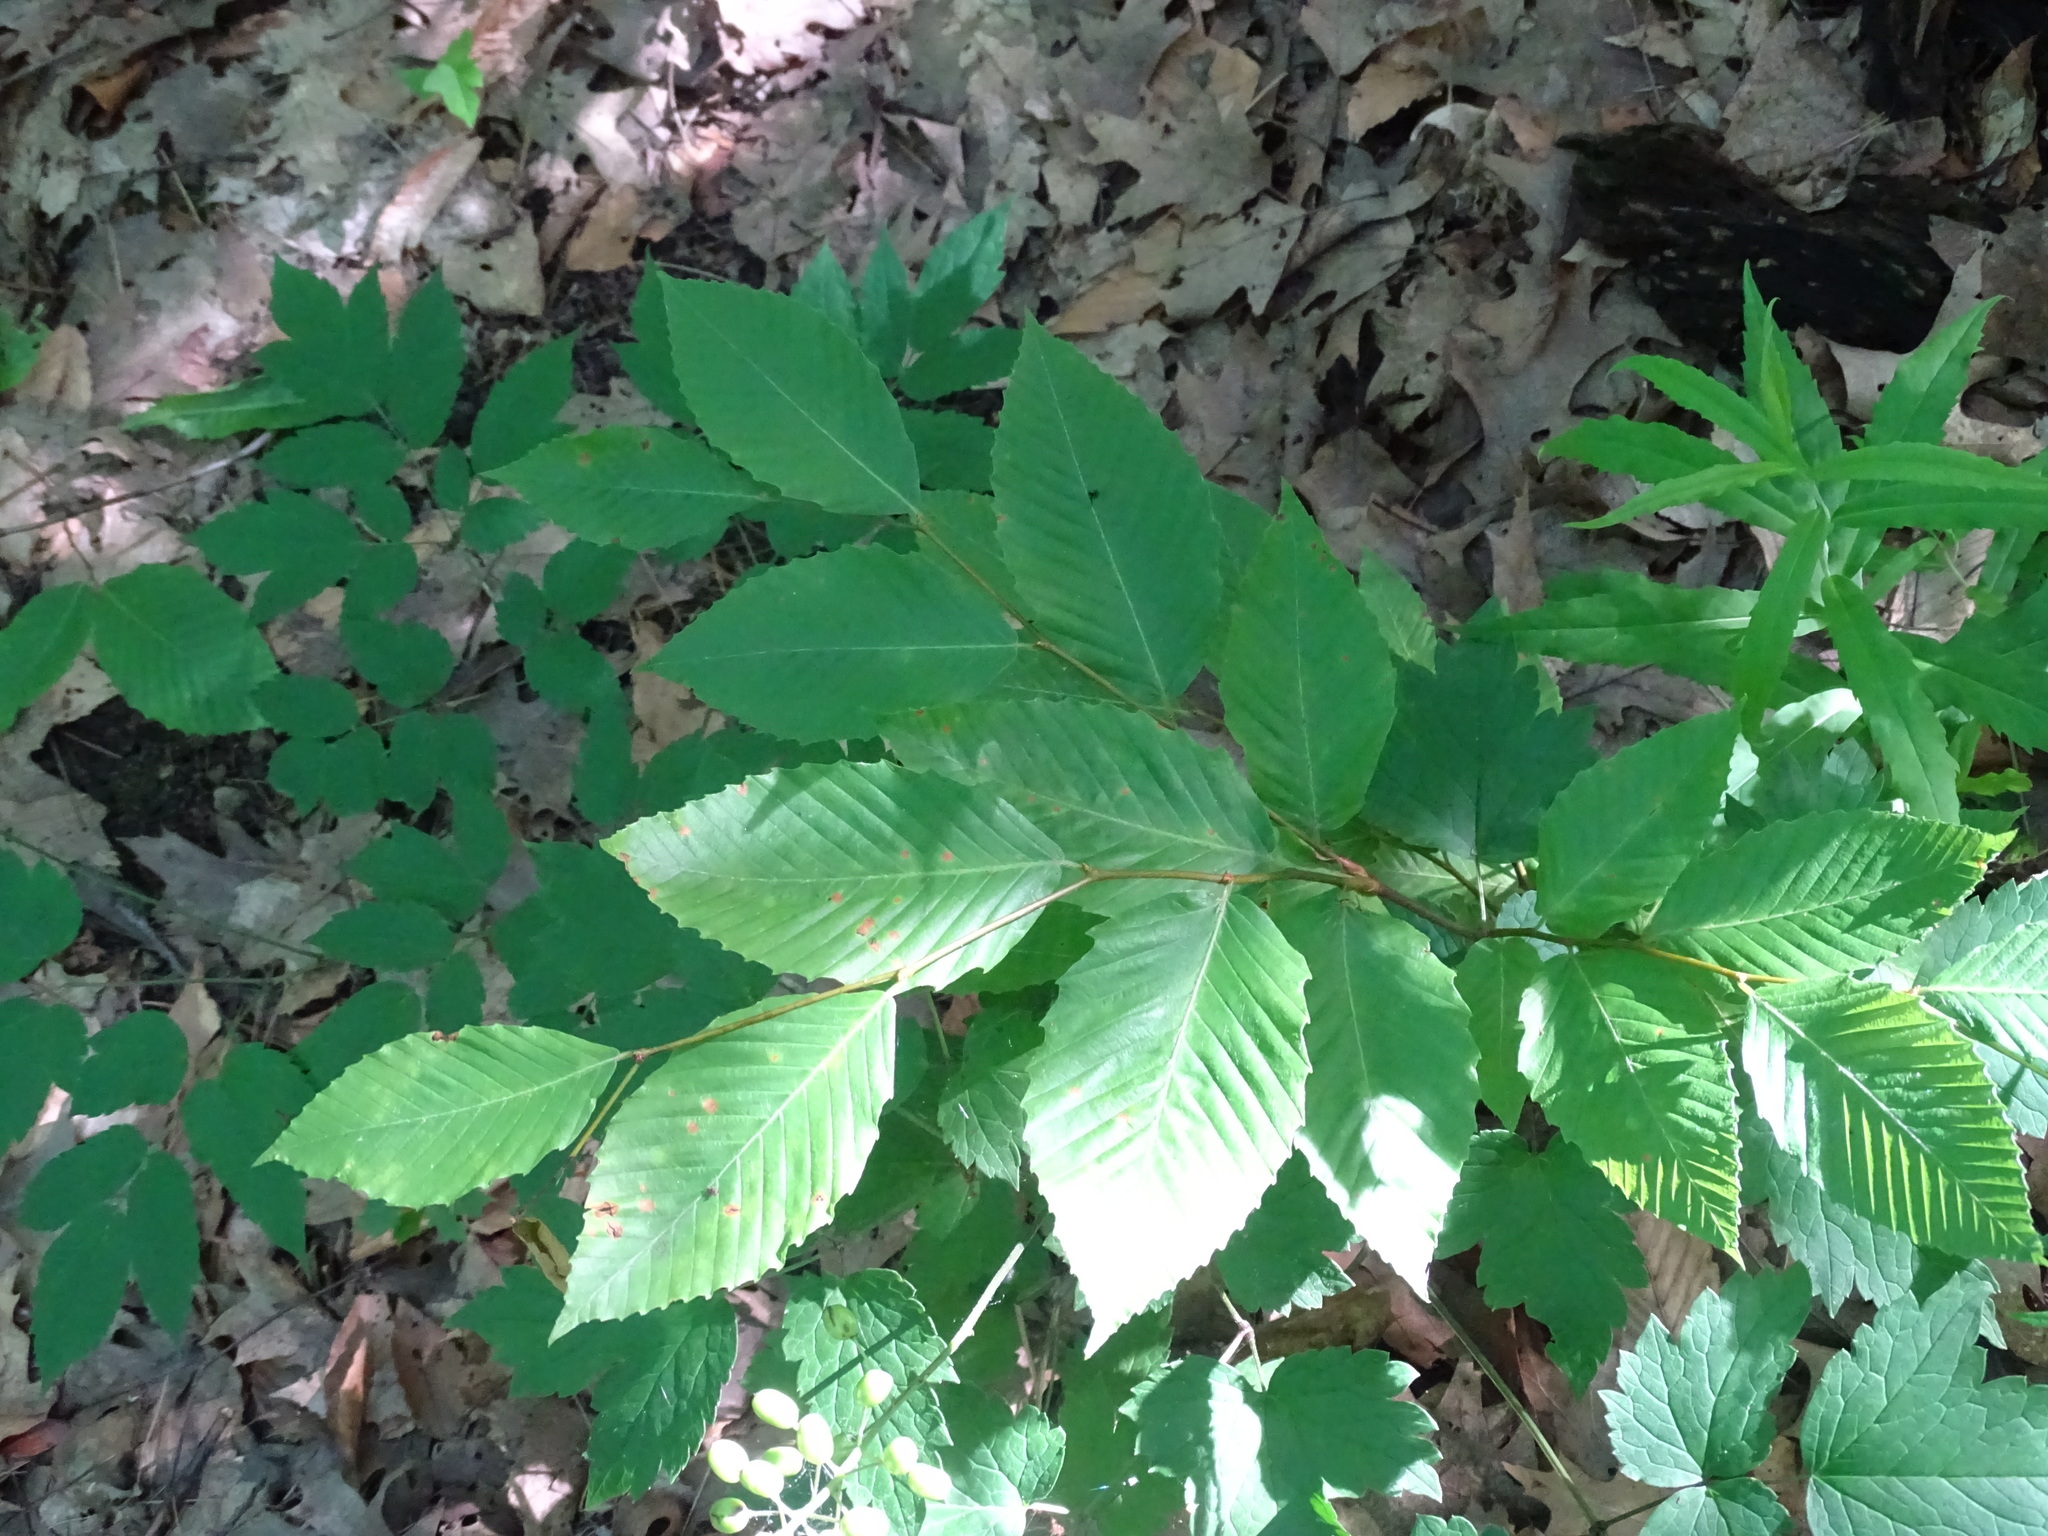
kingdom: Plantae
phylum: Tracheophyta
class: Magnoliopsida
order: Fagales
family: Fagaceae
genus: Fagus
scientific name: Fagus grandifolia
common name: American beech
